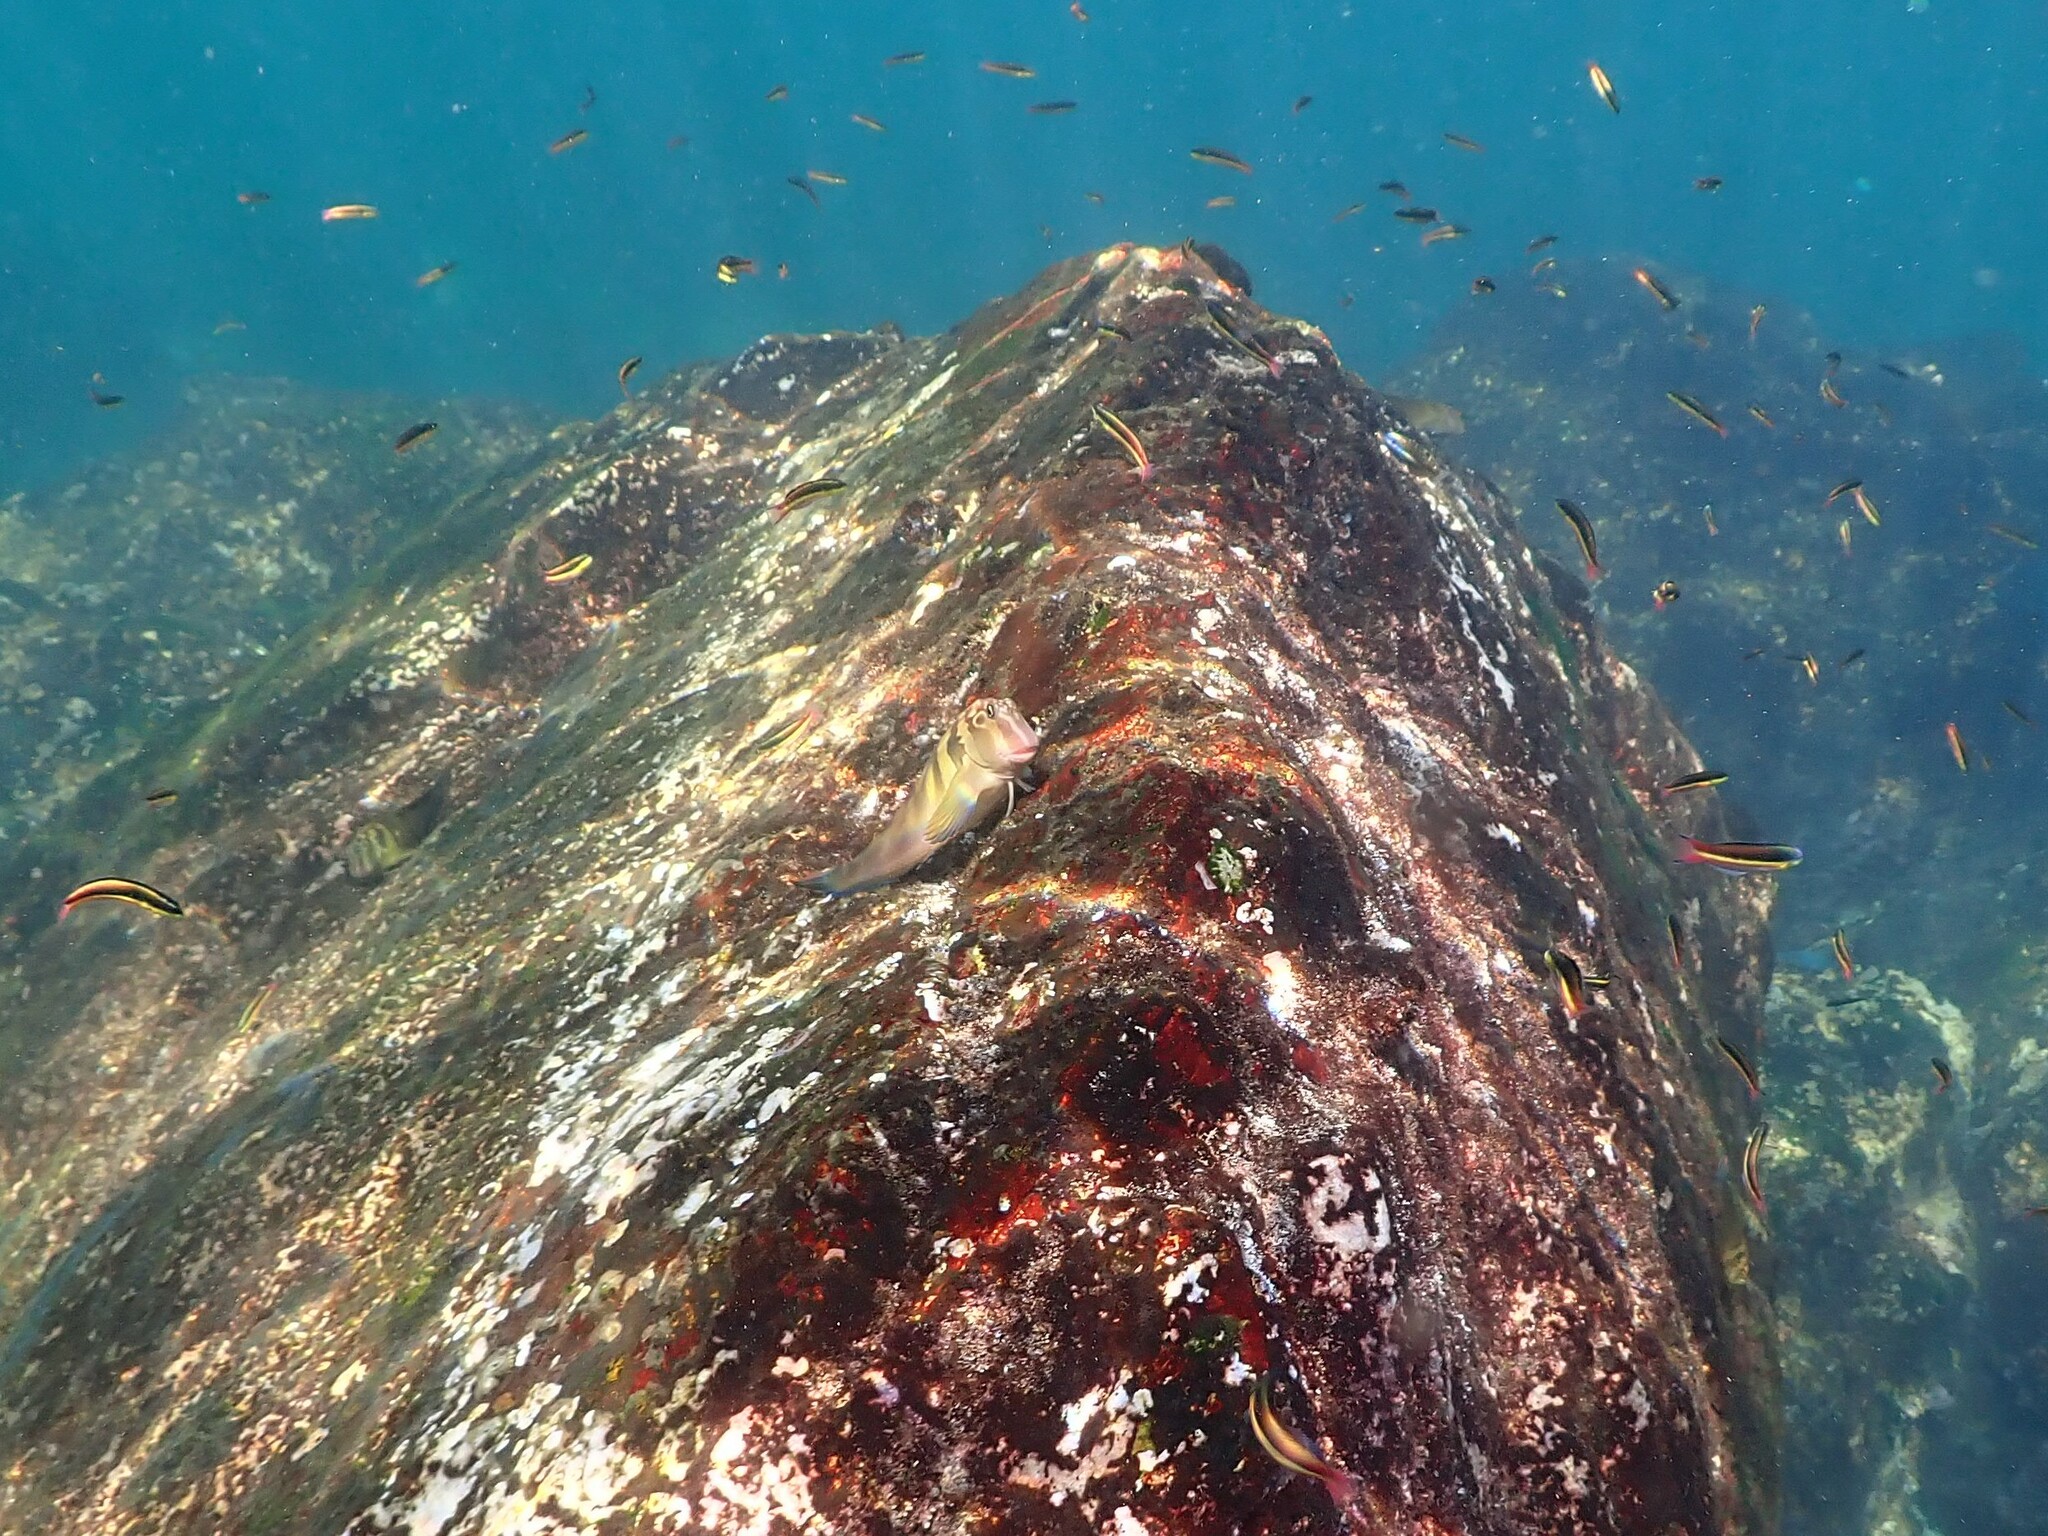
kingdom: Animalia
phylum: Chordata
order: Perciformes
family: Blenniidae
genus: Ophioblennius
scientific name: Ophioblennius steindachneri
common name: Panamic fanged blenny
